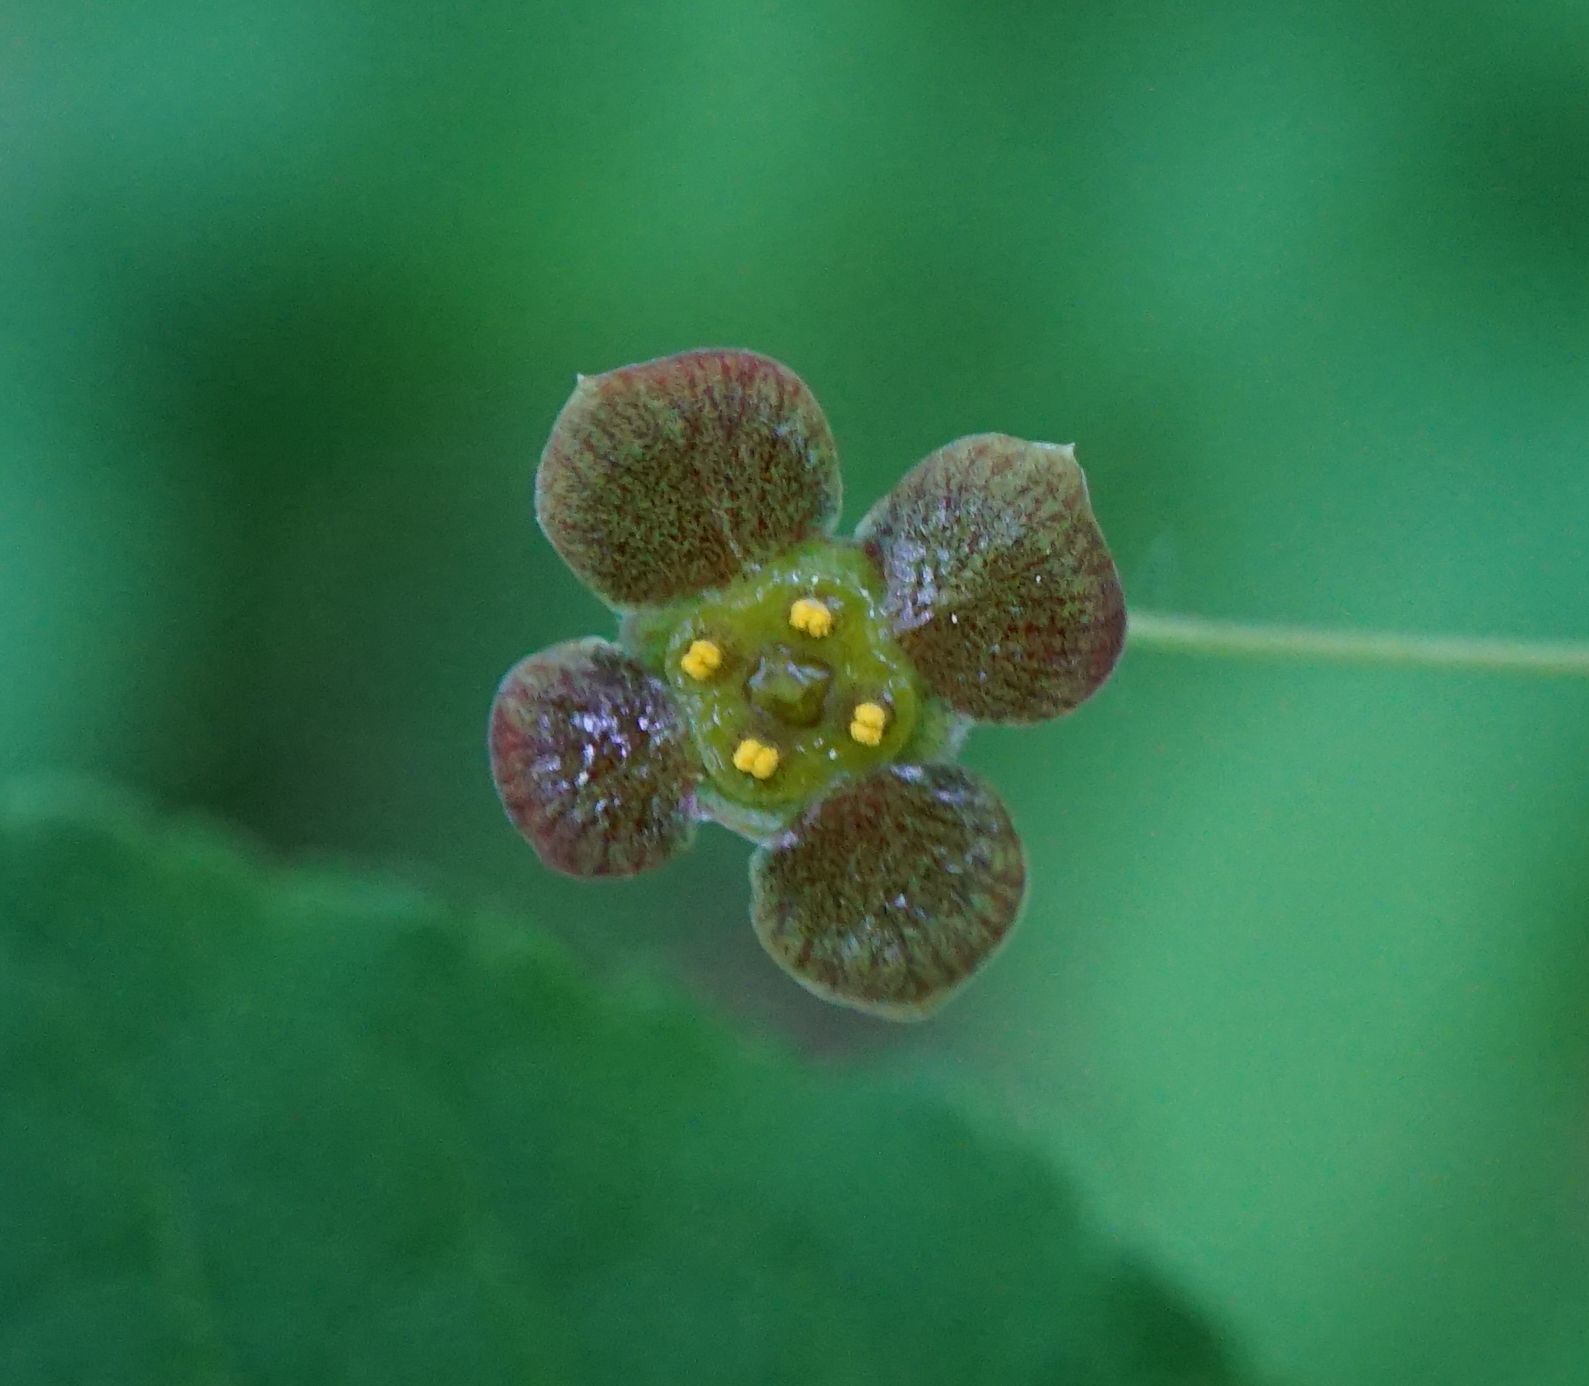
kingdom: Plantae
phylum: Tracheophyta
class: Magnoliopsida
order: Celastrales
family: Celastraceae
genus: Euonymus
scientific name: Euonymus verrucosus
